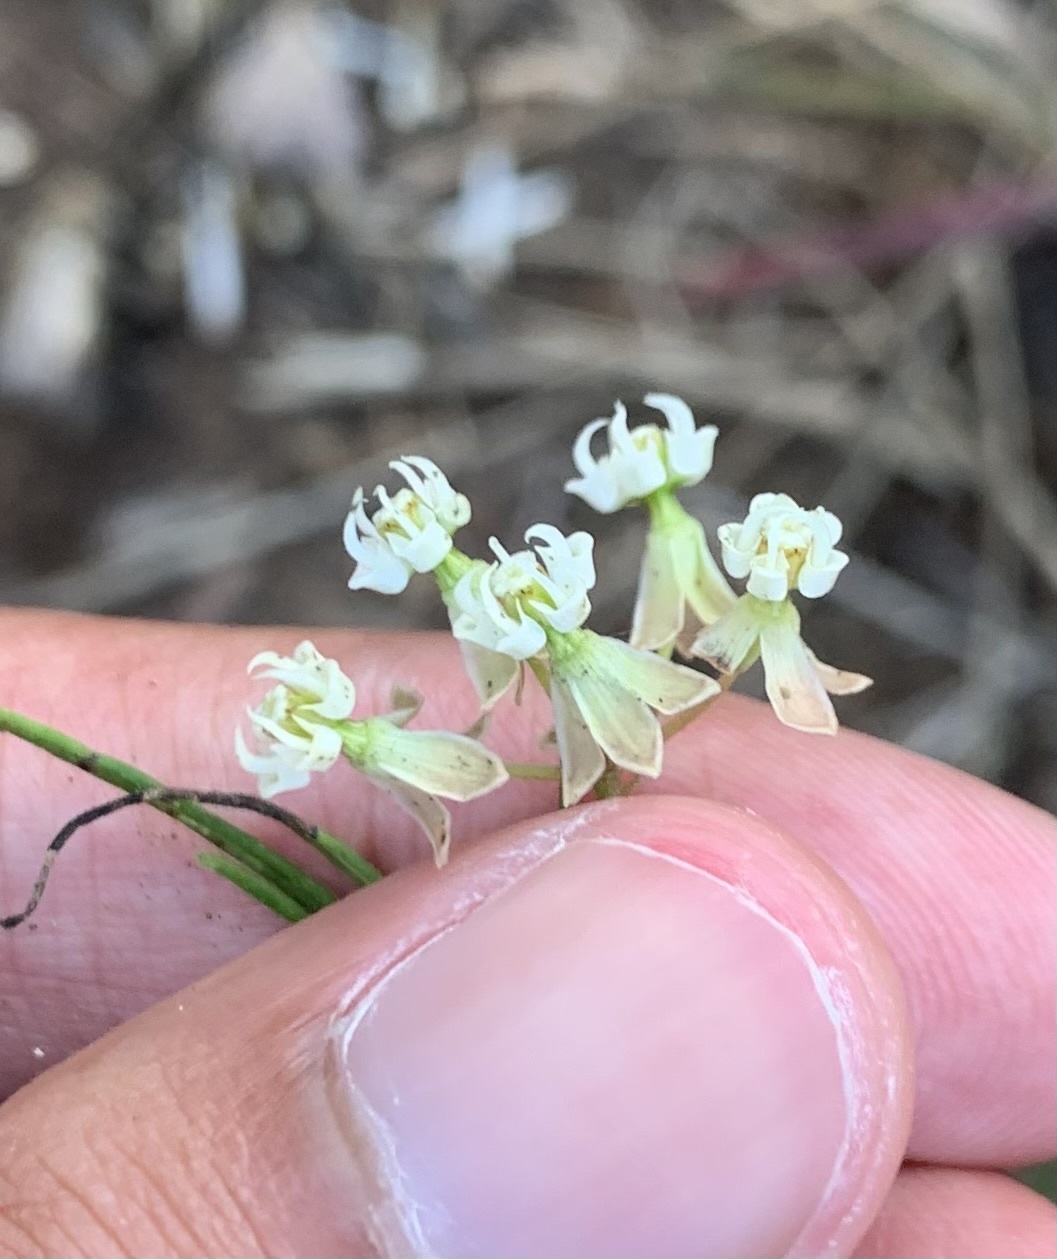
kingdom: Plantae
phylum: Tracheophyta
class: Magnoliopsida
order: Gentianales
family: Apocynaceae
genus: Asclepias
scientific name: Asclepias verticillata
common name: Eastern whorled milkweed
